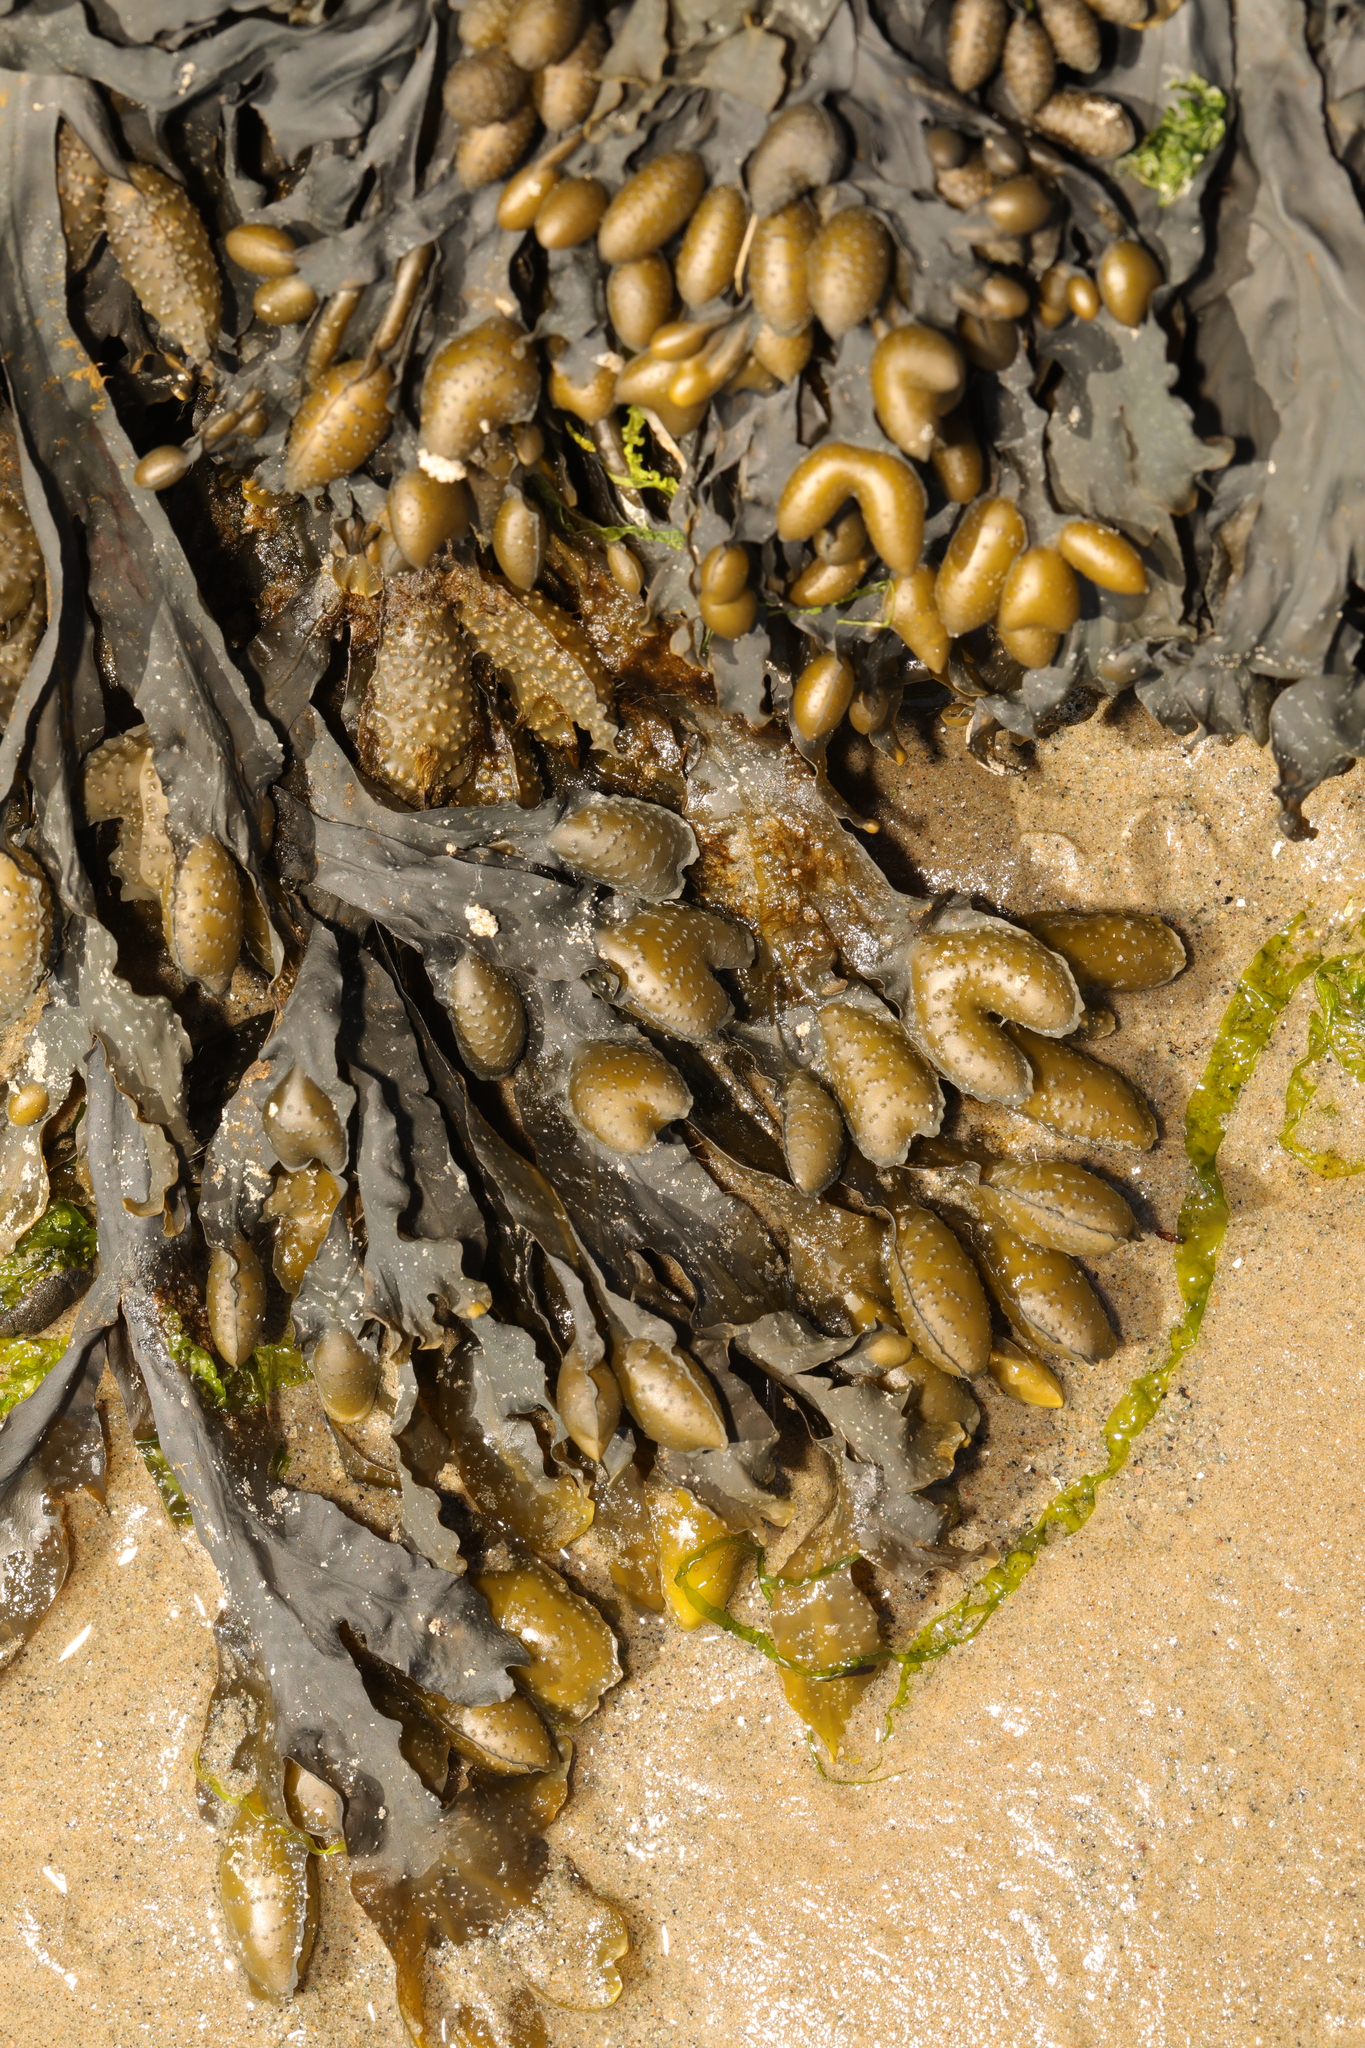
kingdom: Chromista
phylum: Ochrophyta
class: Phaeophyceae
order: Fucales
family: Fucaceae
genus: Fucus
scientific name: Fucus spiralis
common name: Spiral wrack
